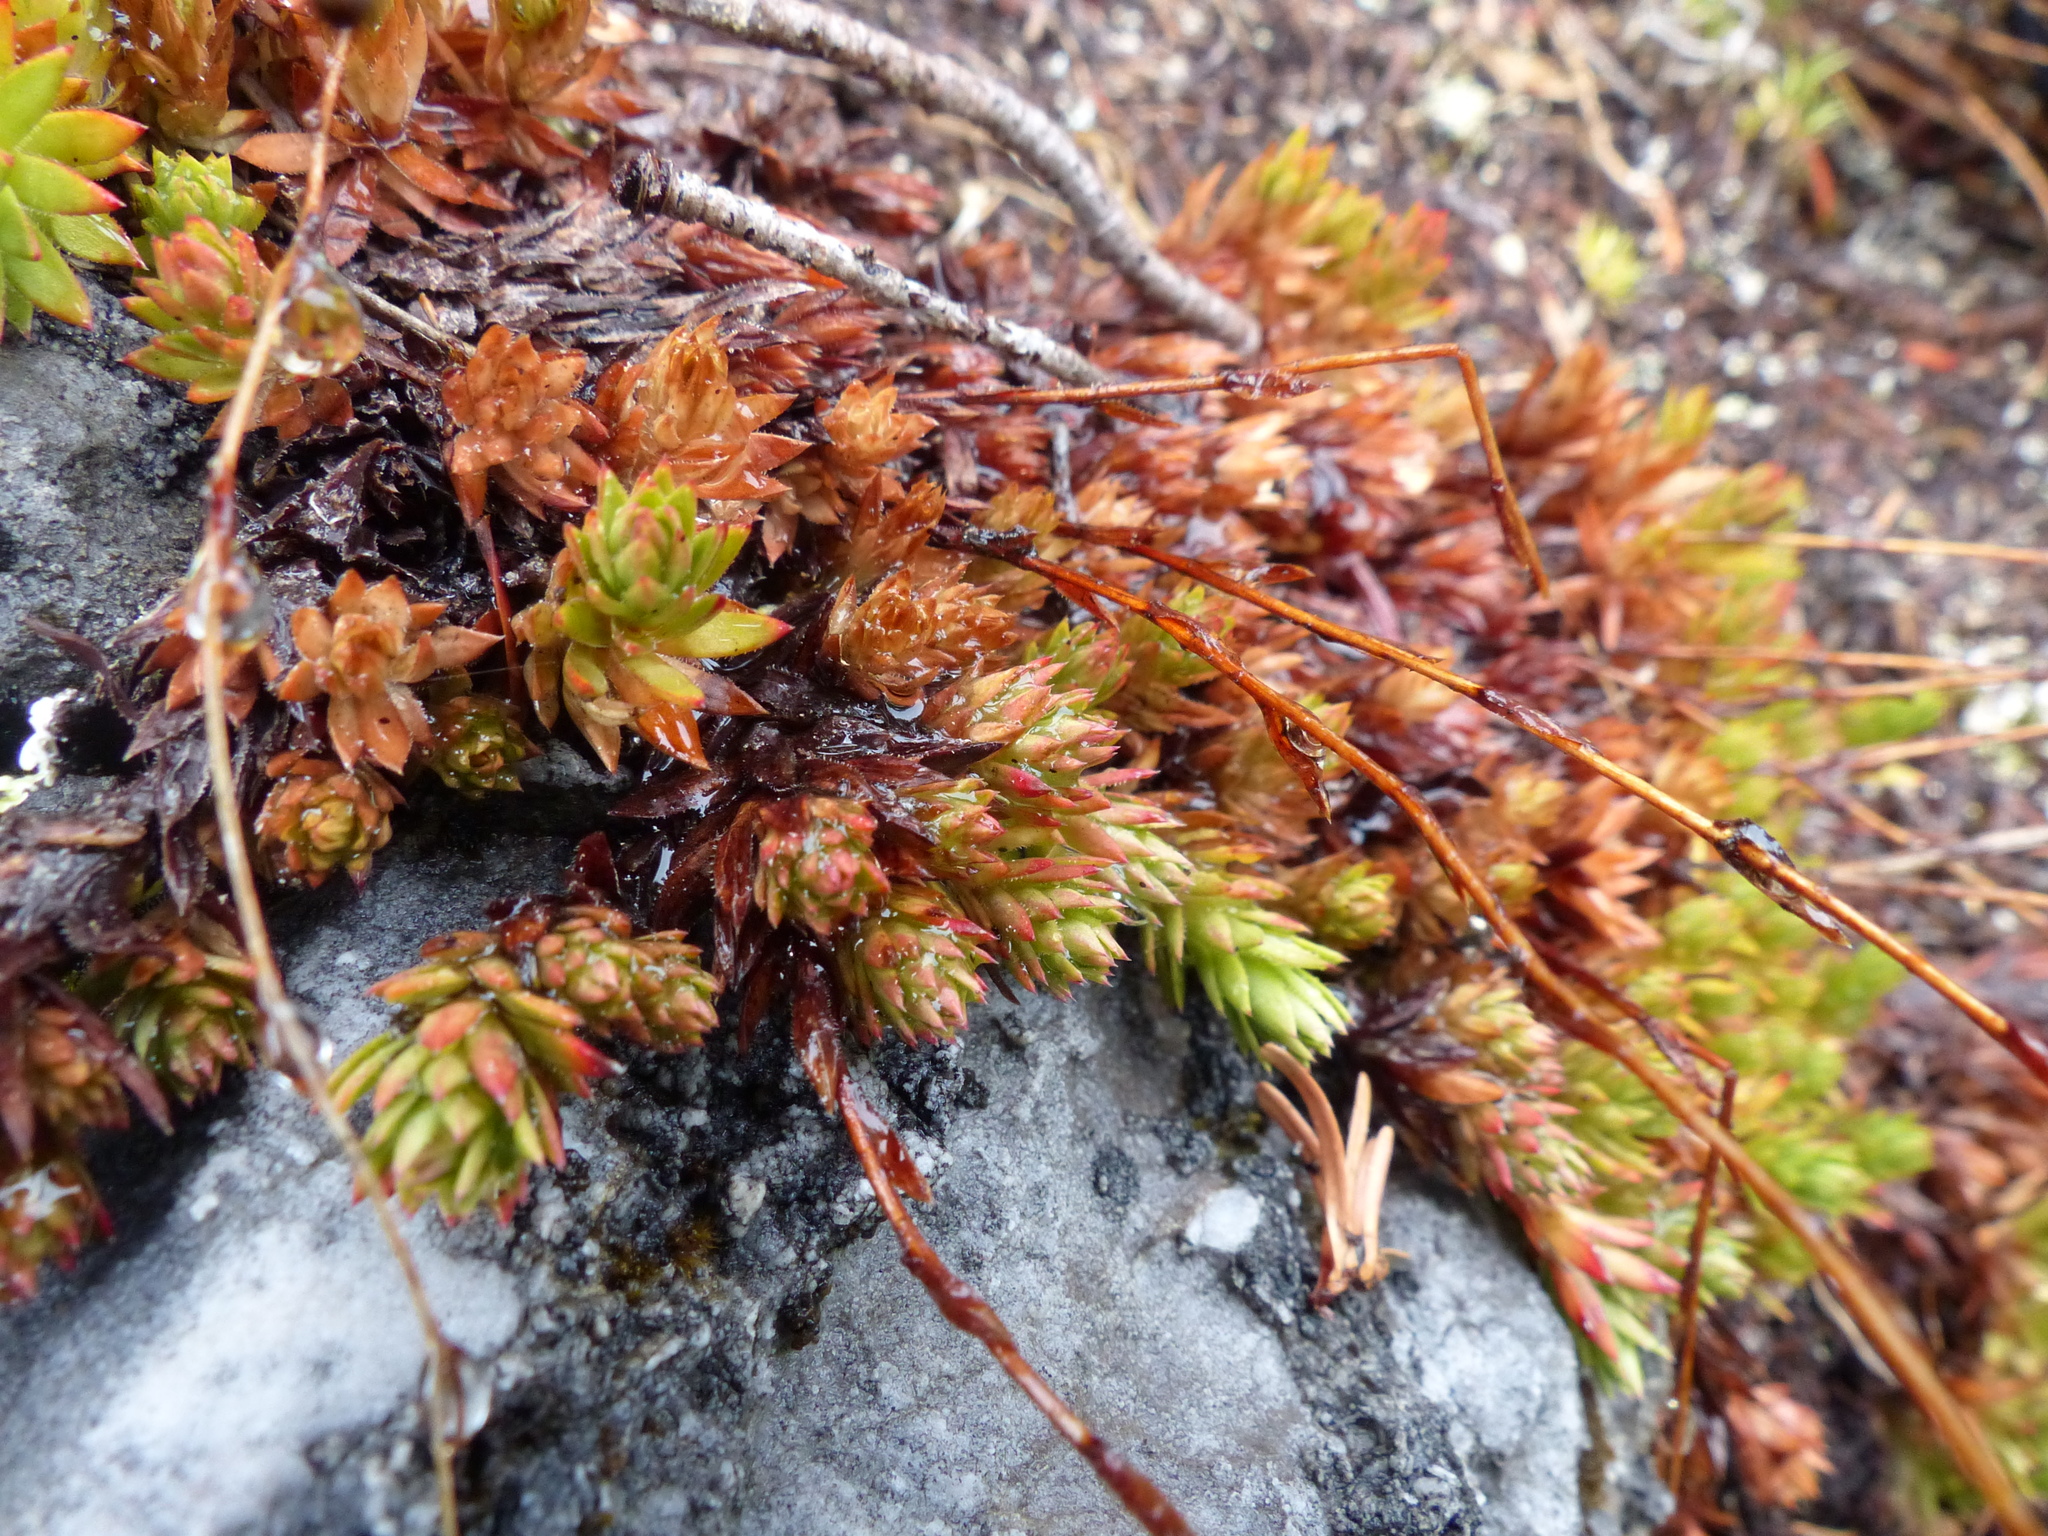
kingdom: Plantae
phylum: Tracheophyta
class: Magnoliopsida
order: Saxifragales
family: Saxifragaceae
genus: Saxifraga
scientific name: Saxifraga bronchialis
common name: Matted saxifrage
